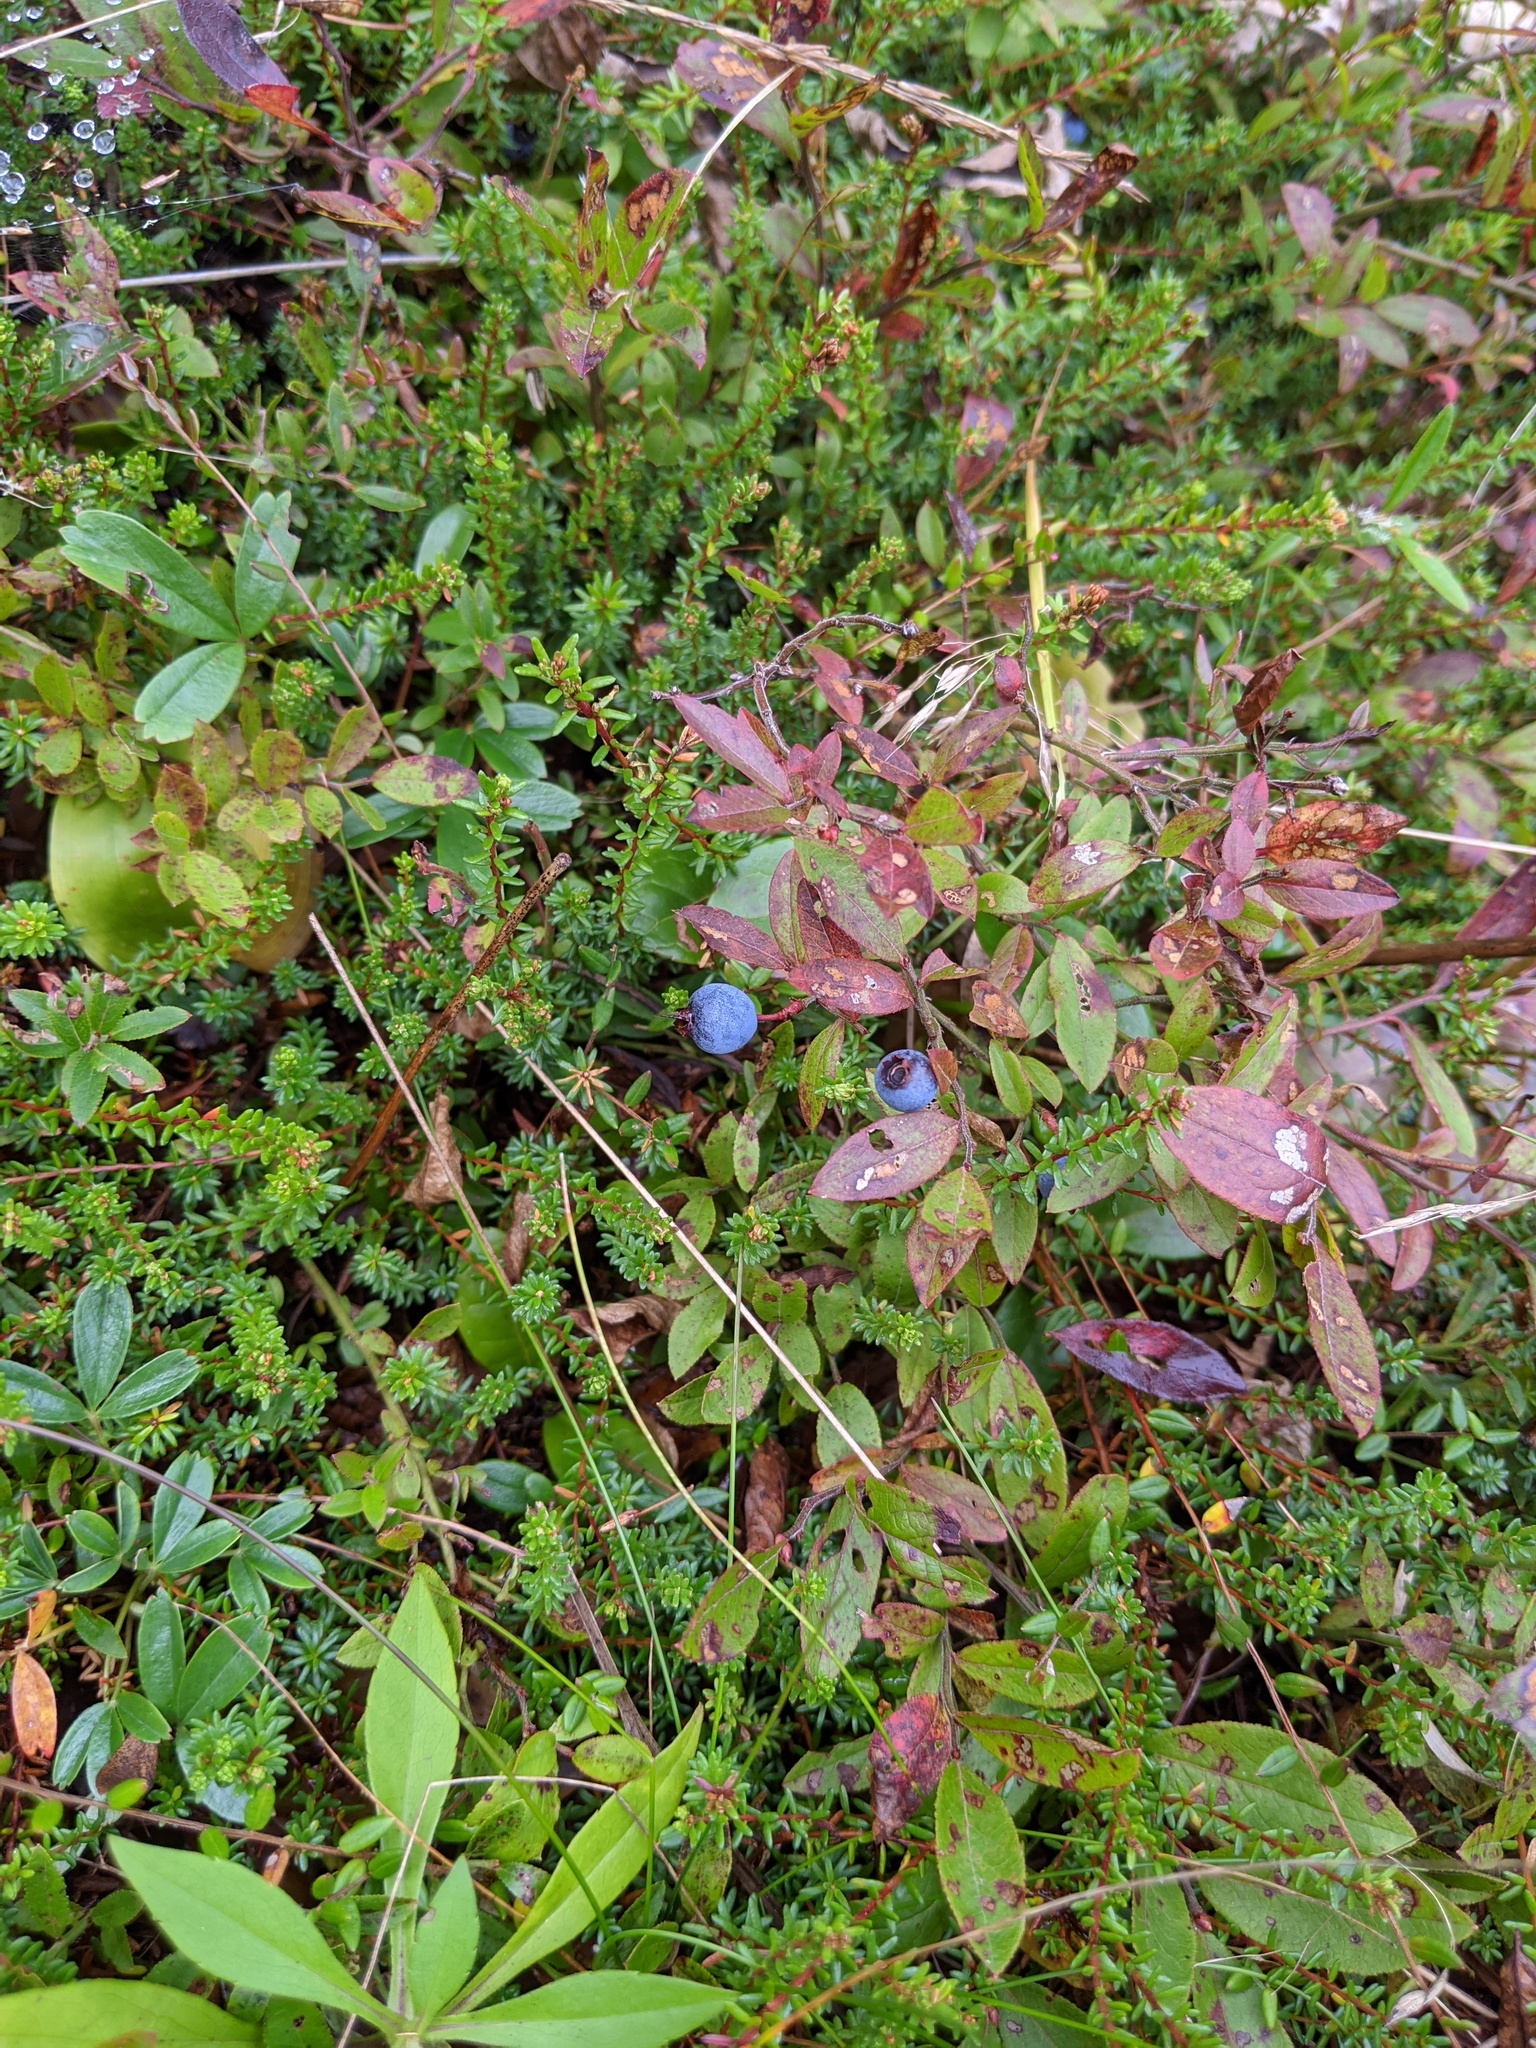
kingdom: Plantae
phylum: Tracheophyta
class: Magnoliopsida
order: Ericales
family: Ericaceae
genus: Vaccinium
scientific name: Vaccinium angustifolium
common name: Early lowbush blueberry
